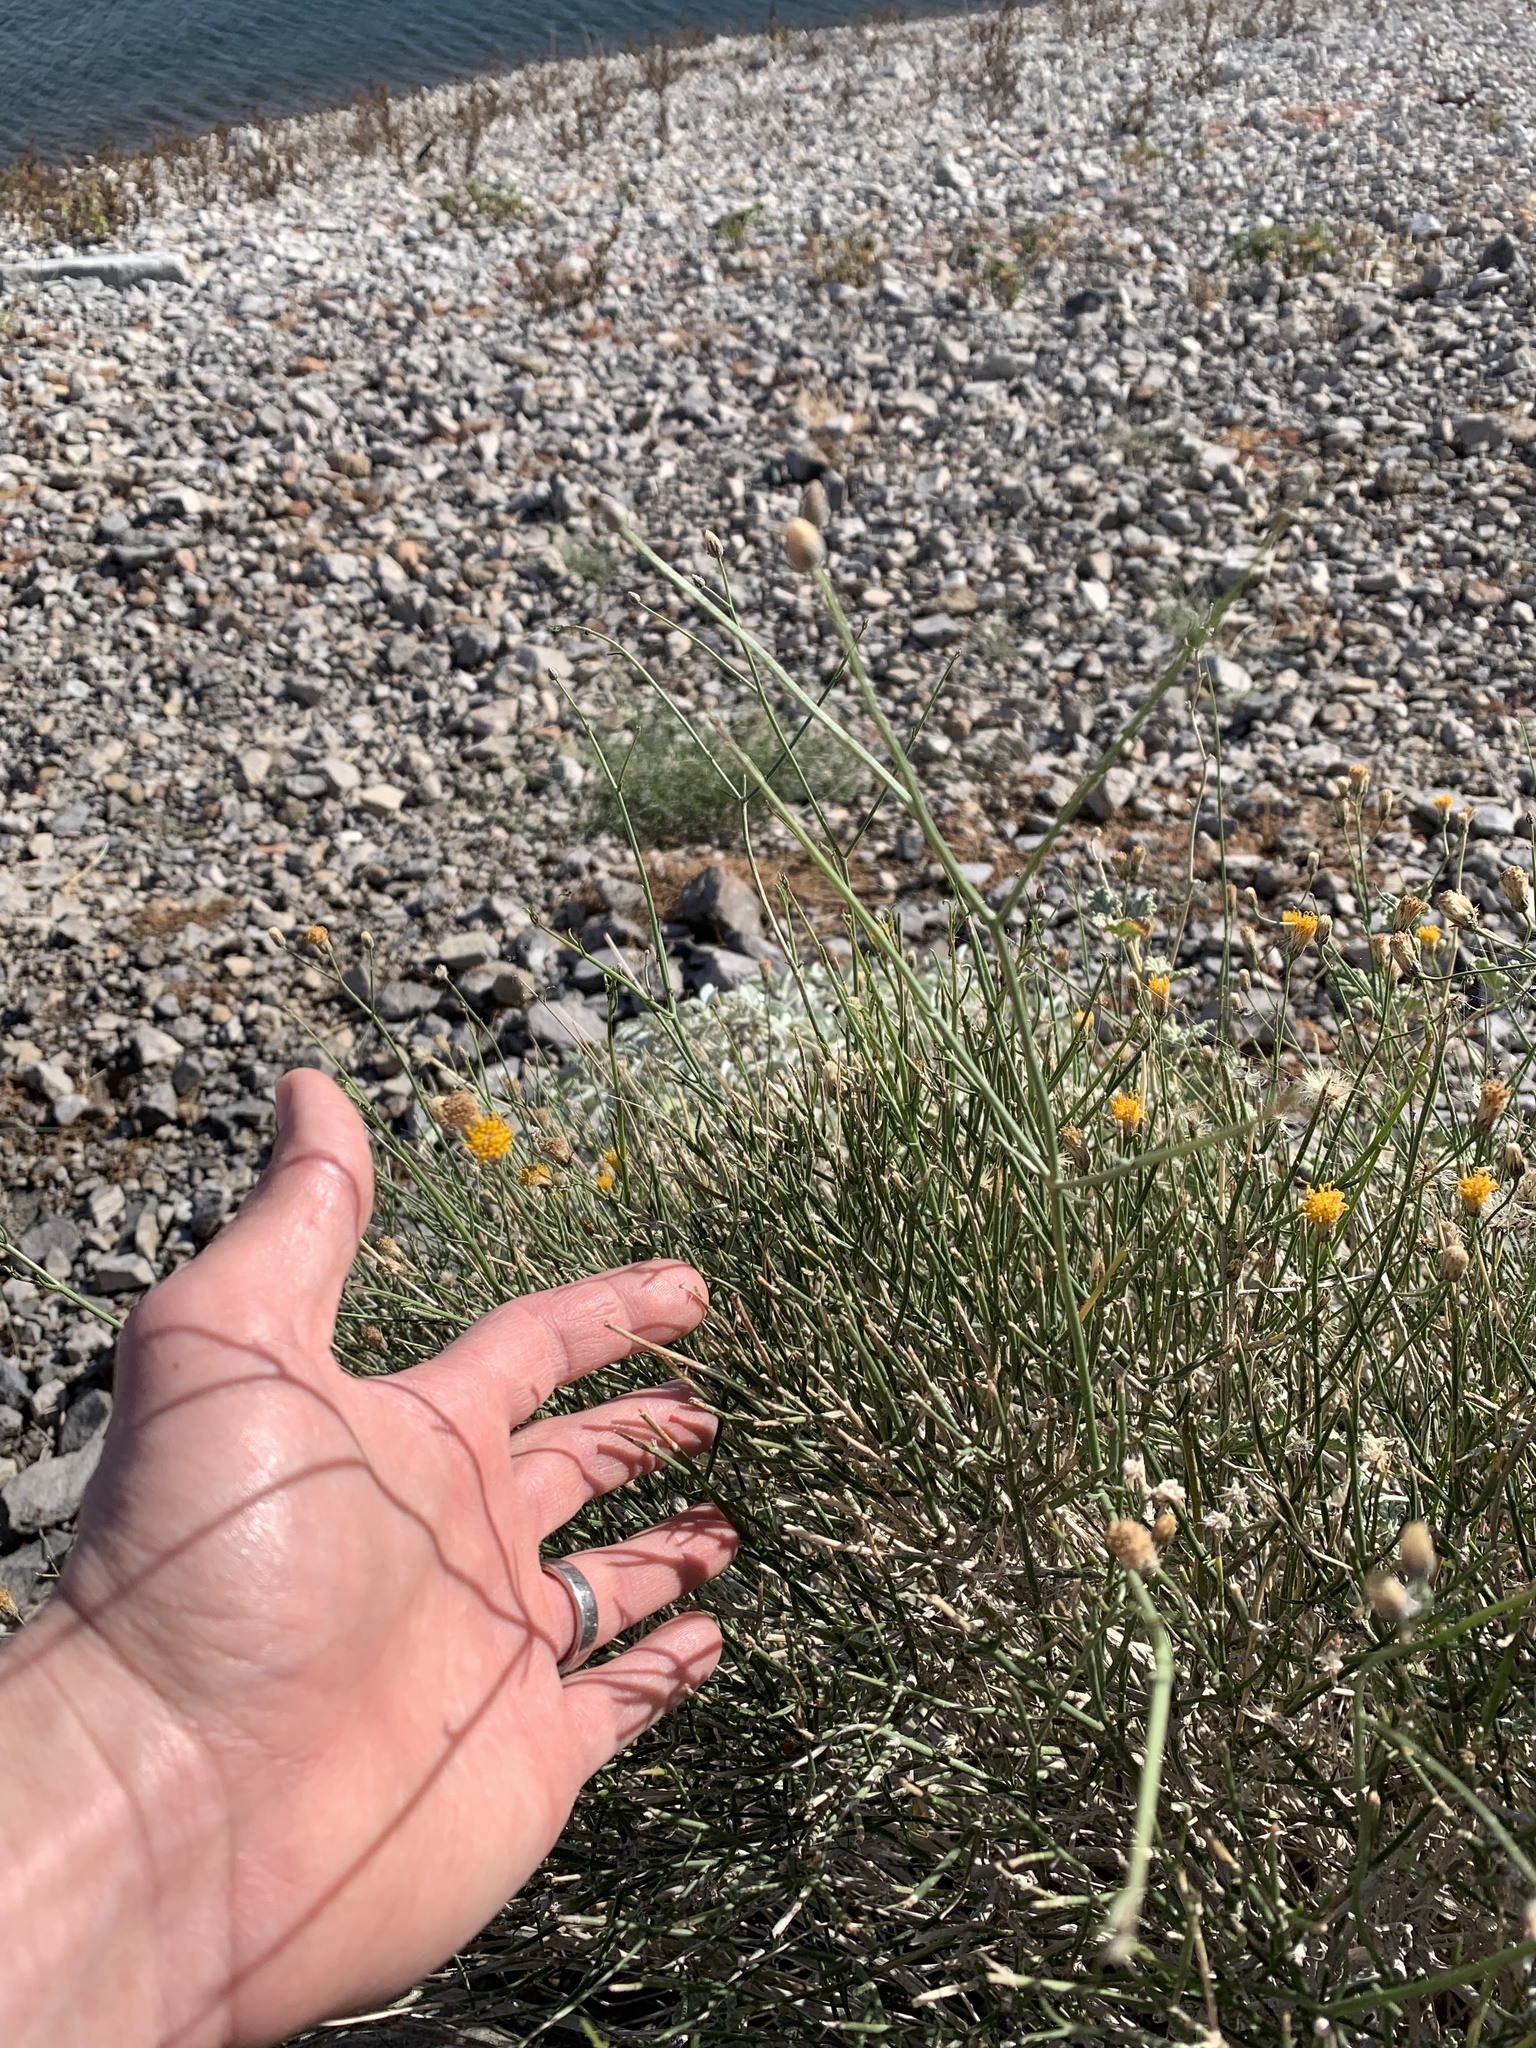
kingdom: Plantae
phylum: Tracheophyta
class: Magnoliopsida
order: Asterales
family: Asteraceae
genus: Bebbia
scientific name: Bebbia juncea
